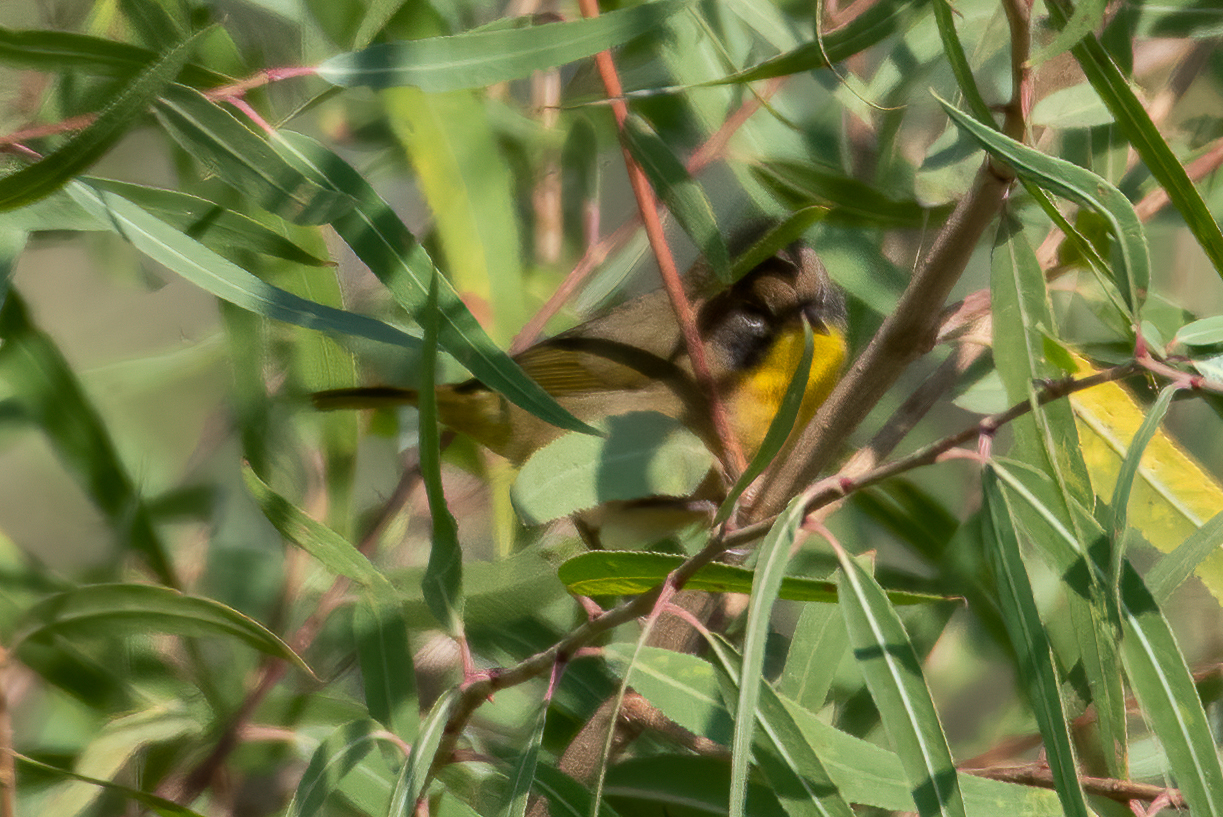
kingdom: Animalia
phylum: Chordata
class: Aves
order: Passeriformes
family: Parulidae
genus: Geothlypis
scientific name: Geothlypis trichas
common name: Common yellowthroat
